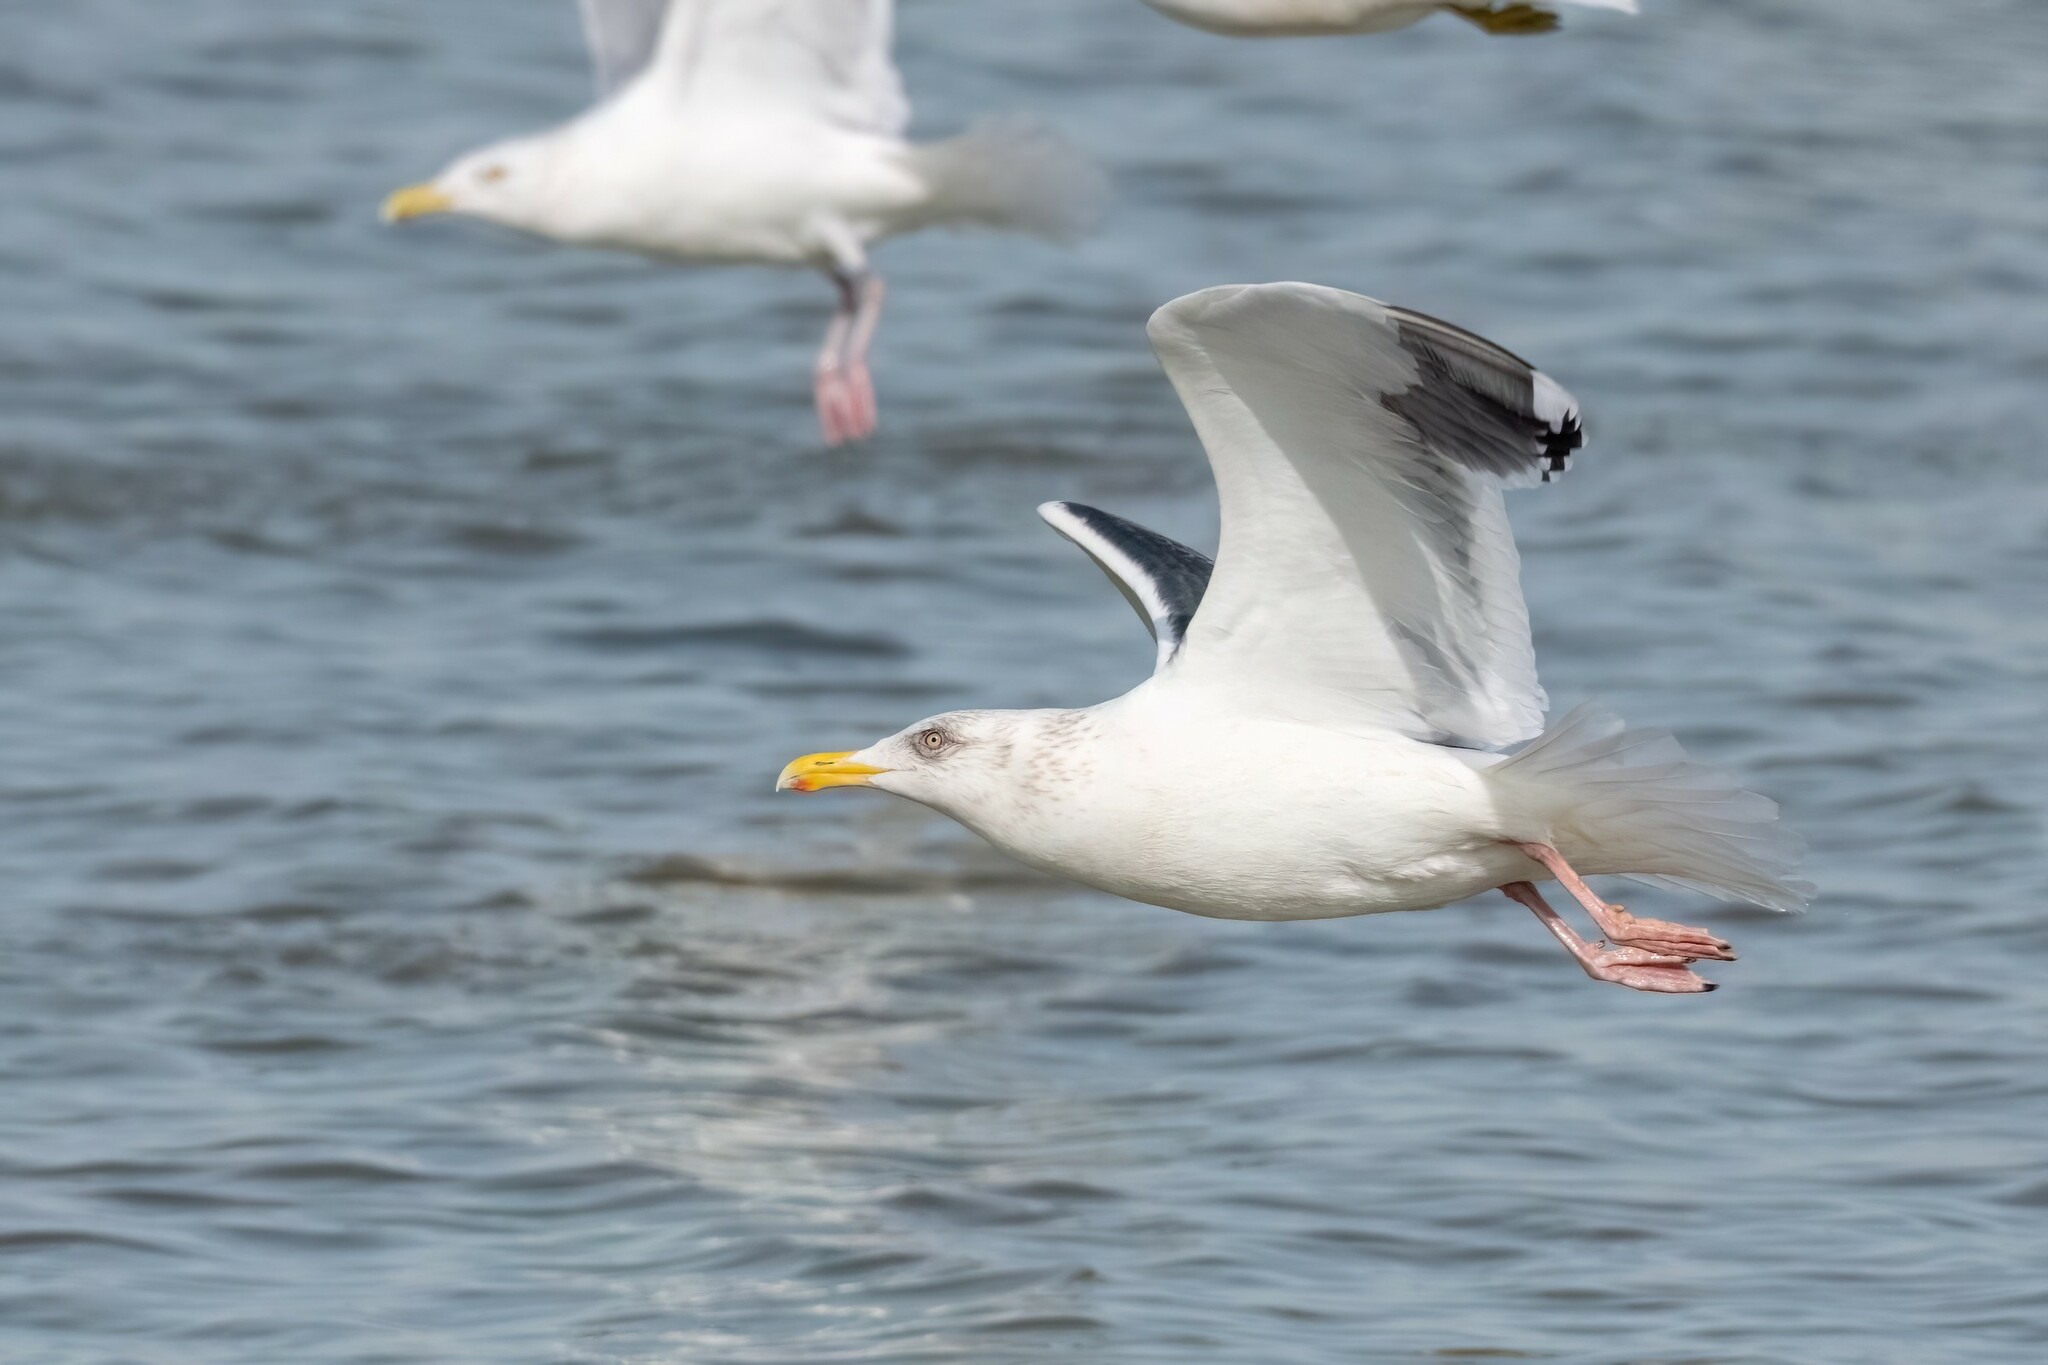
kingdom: Animalia
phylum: Chordata
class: Aves
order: Charadriiformes
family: Laridae
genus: Larus
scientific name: Larus schistisagus
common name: Slaty-backed gull
